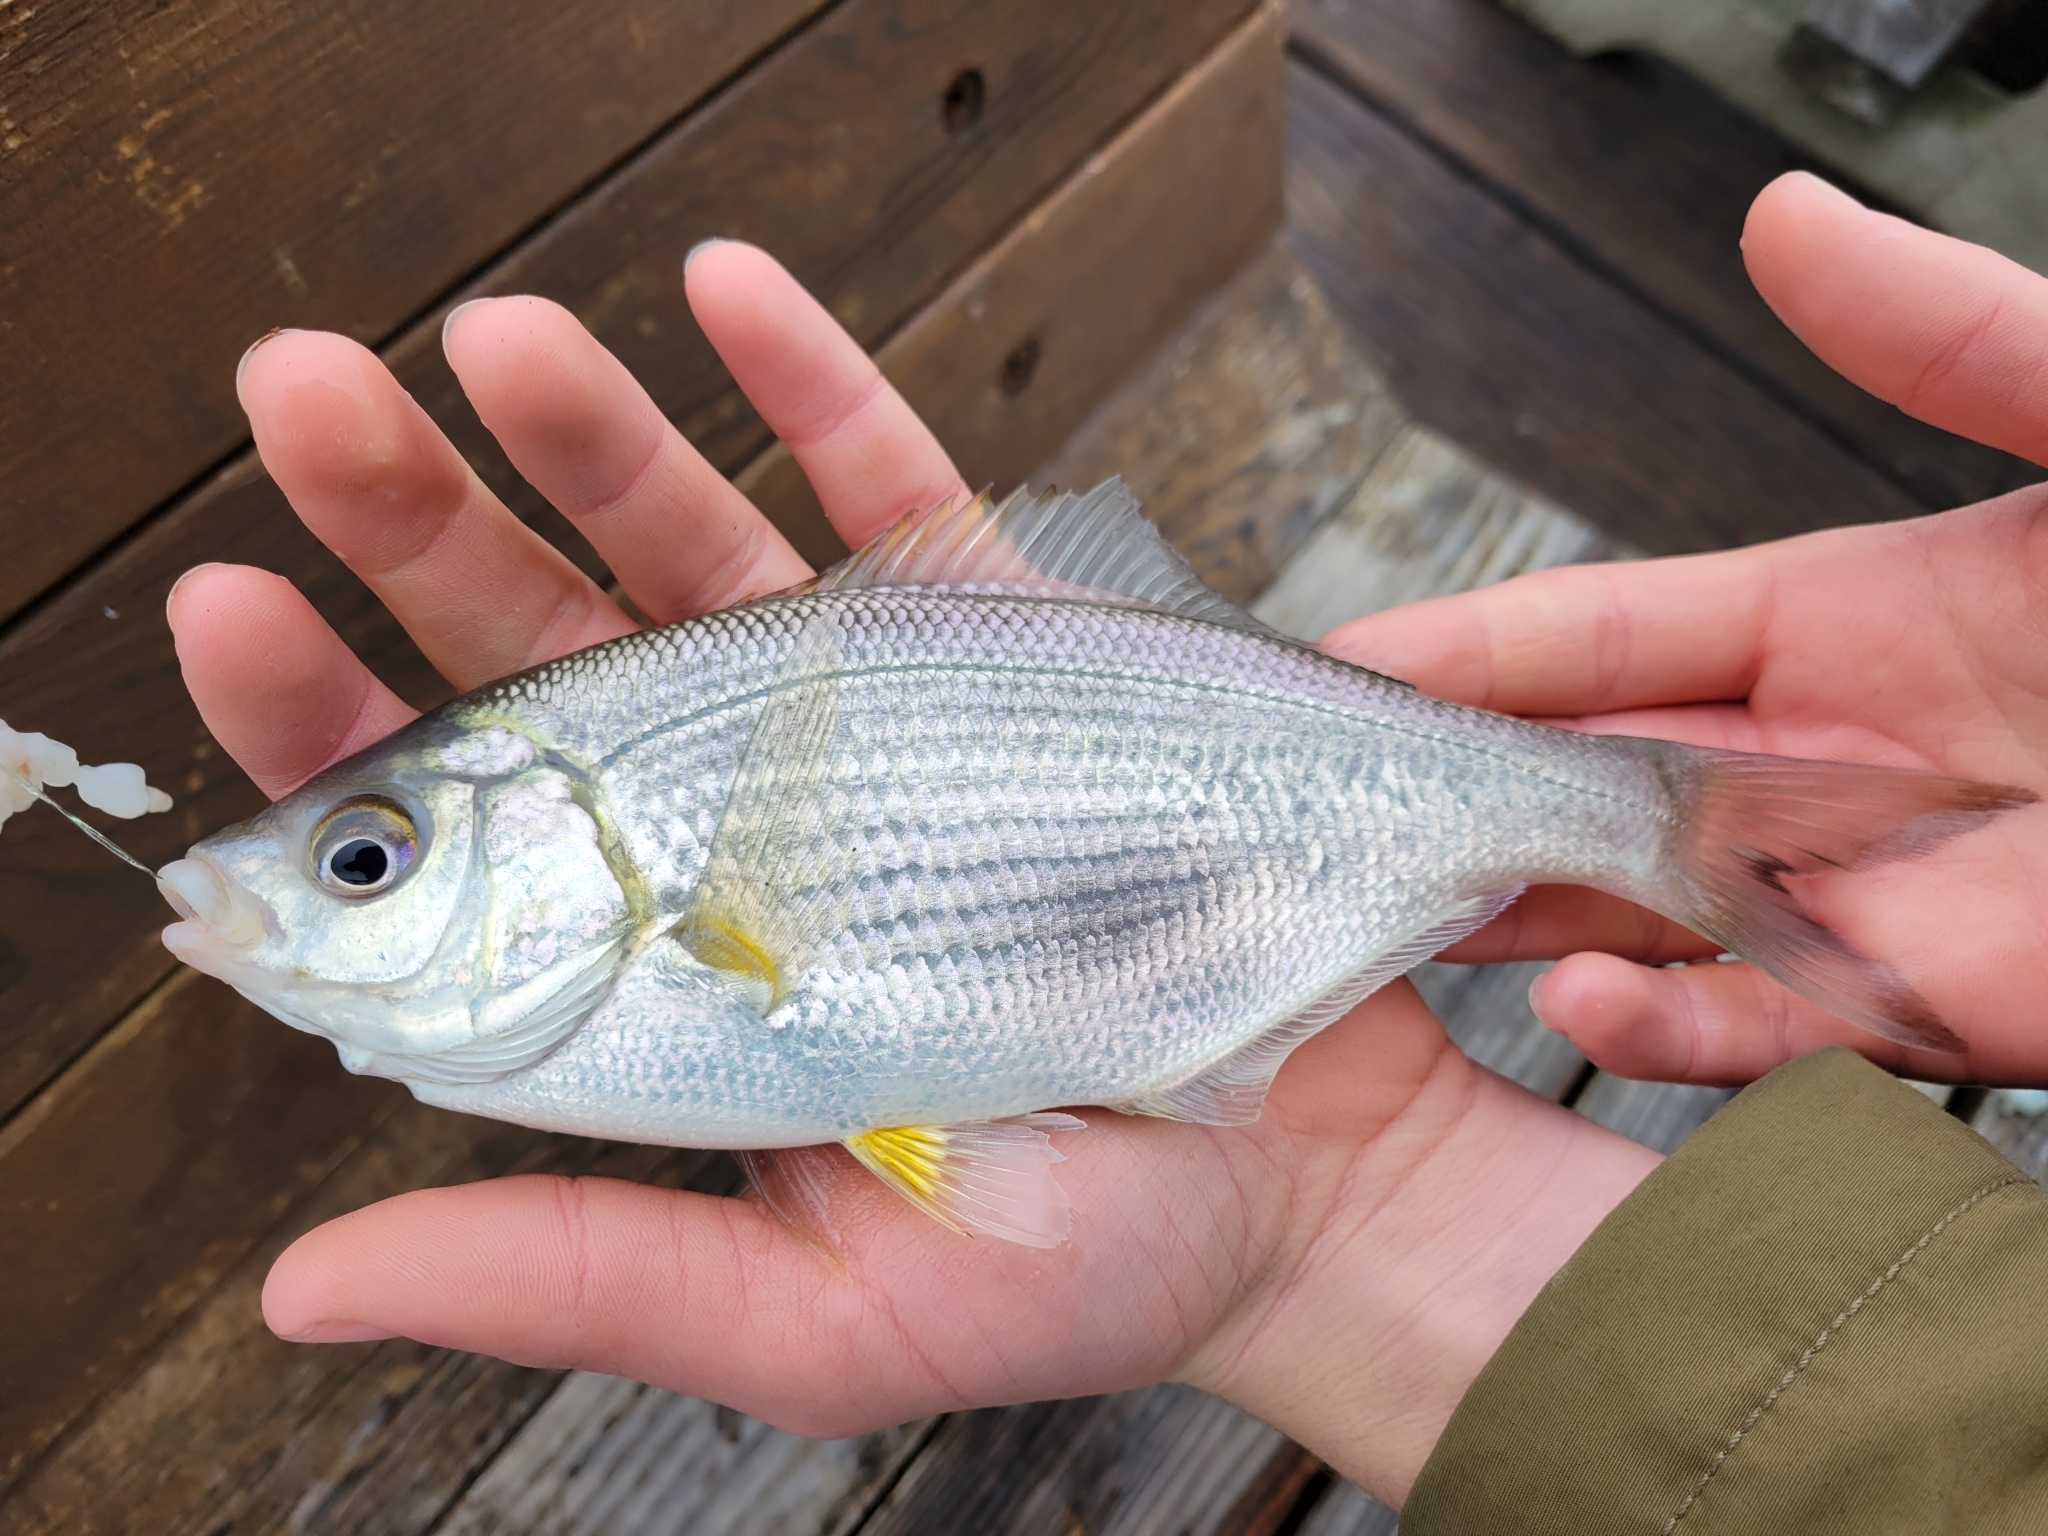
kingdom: Animalia
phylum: Chordata
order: Perciformes
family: Embiotocidae
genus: Phanerodon
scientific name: Phanerodon furcatus
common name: White seaperch
